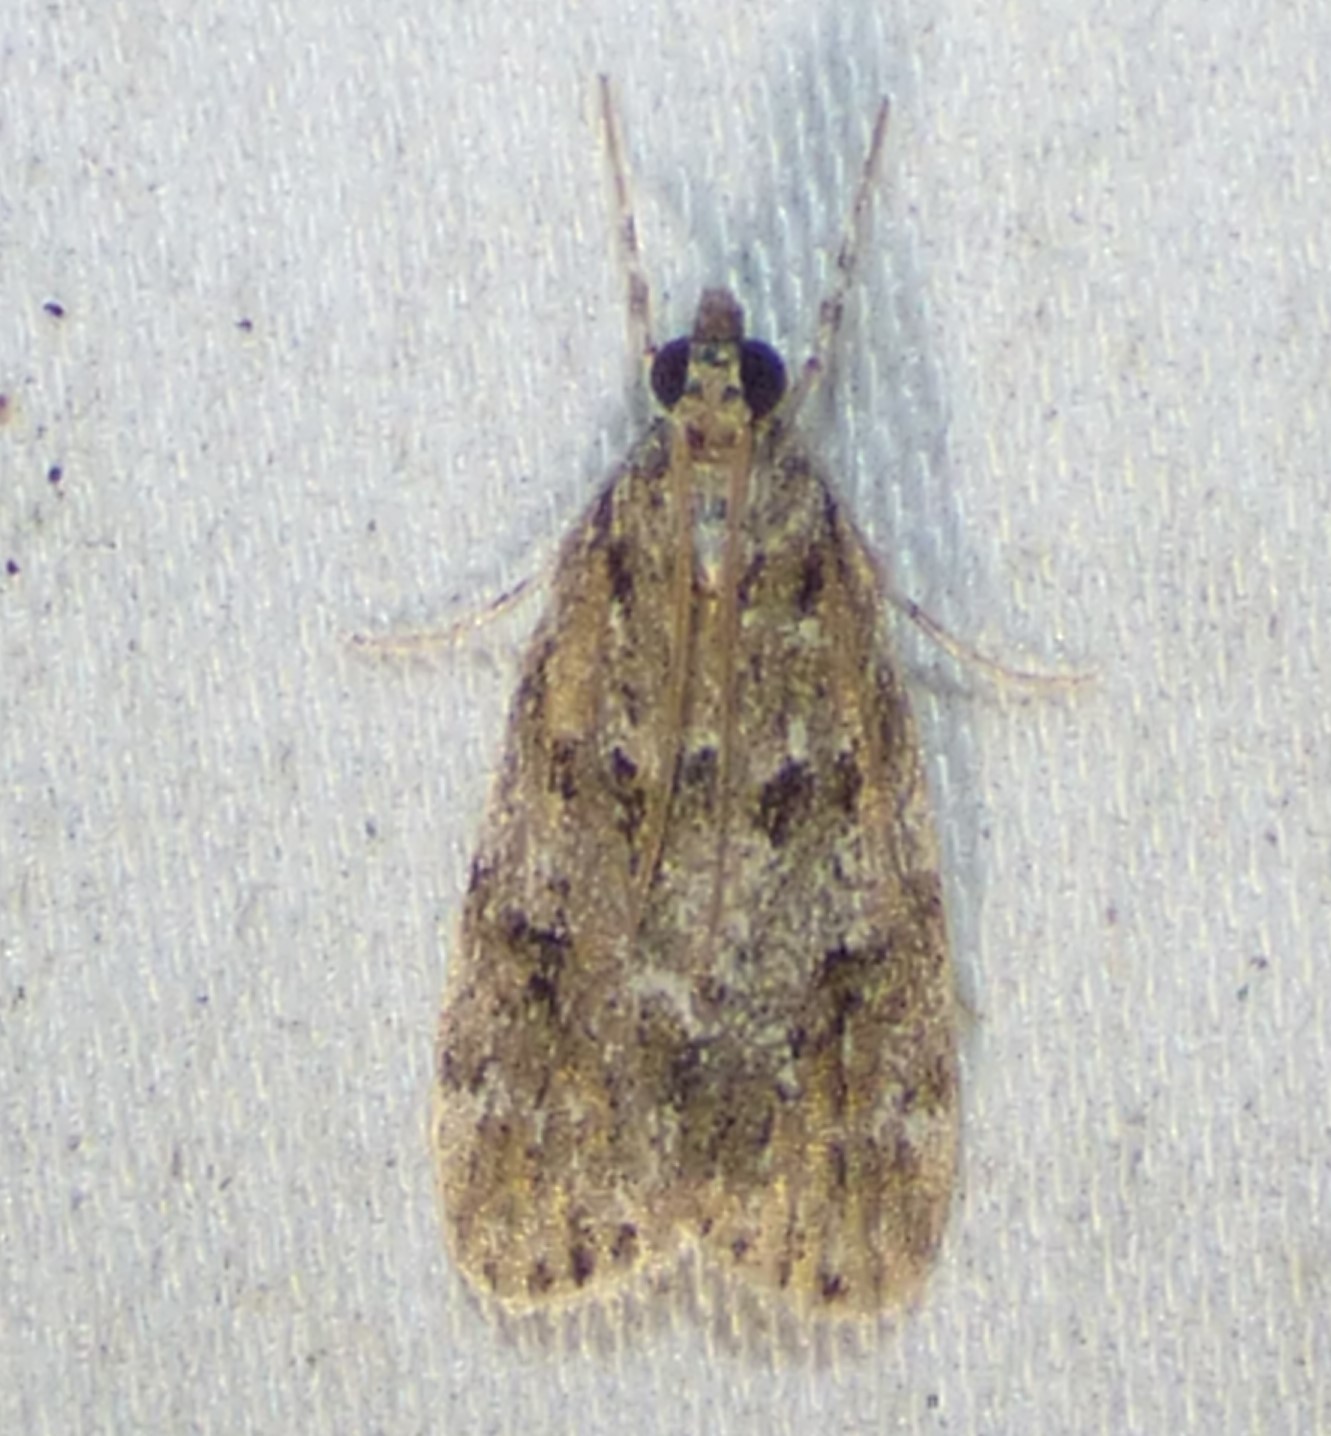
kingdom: Animalia
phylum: Arthropoda
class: Insecta
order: Lepidoptera
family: Crambidae
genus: Scoparia
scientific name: Scoparia basalis
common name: Many-spotted scoparia moth
